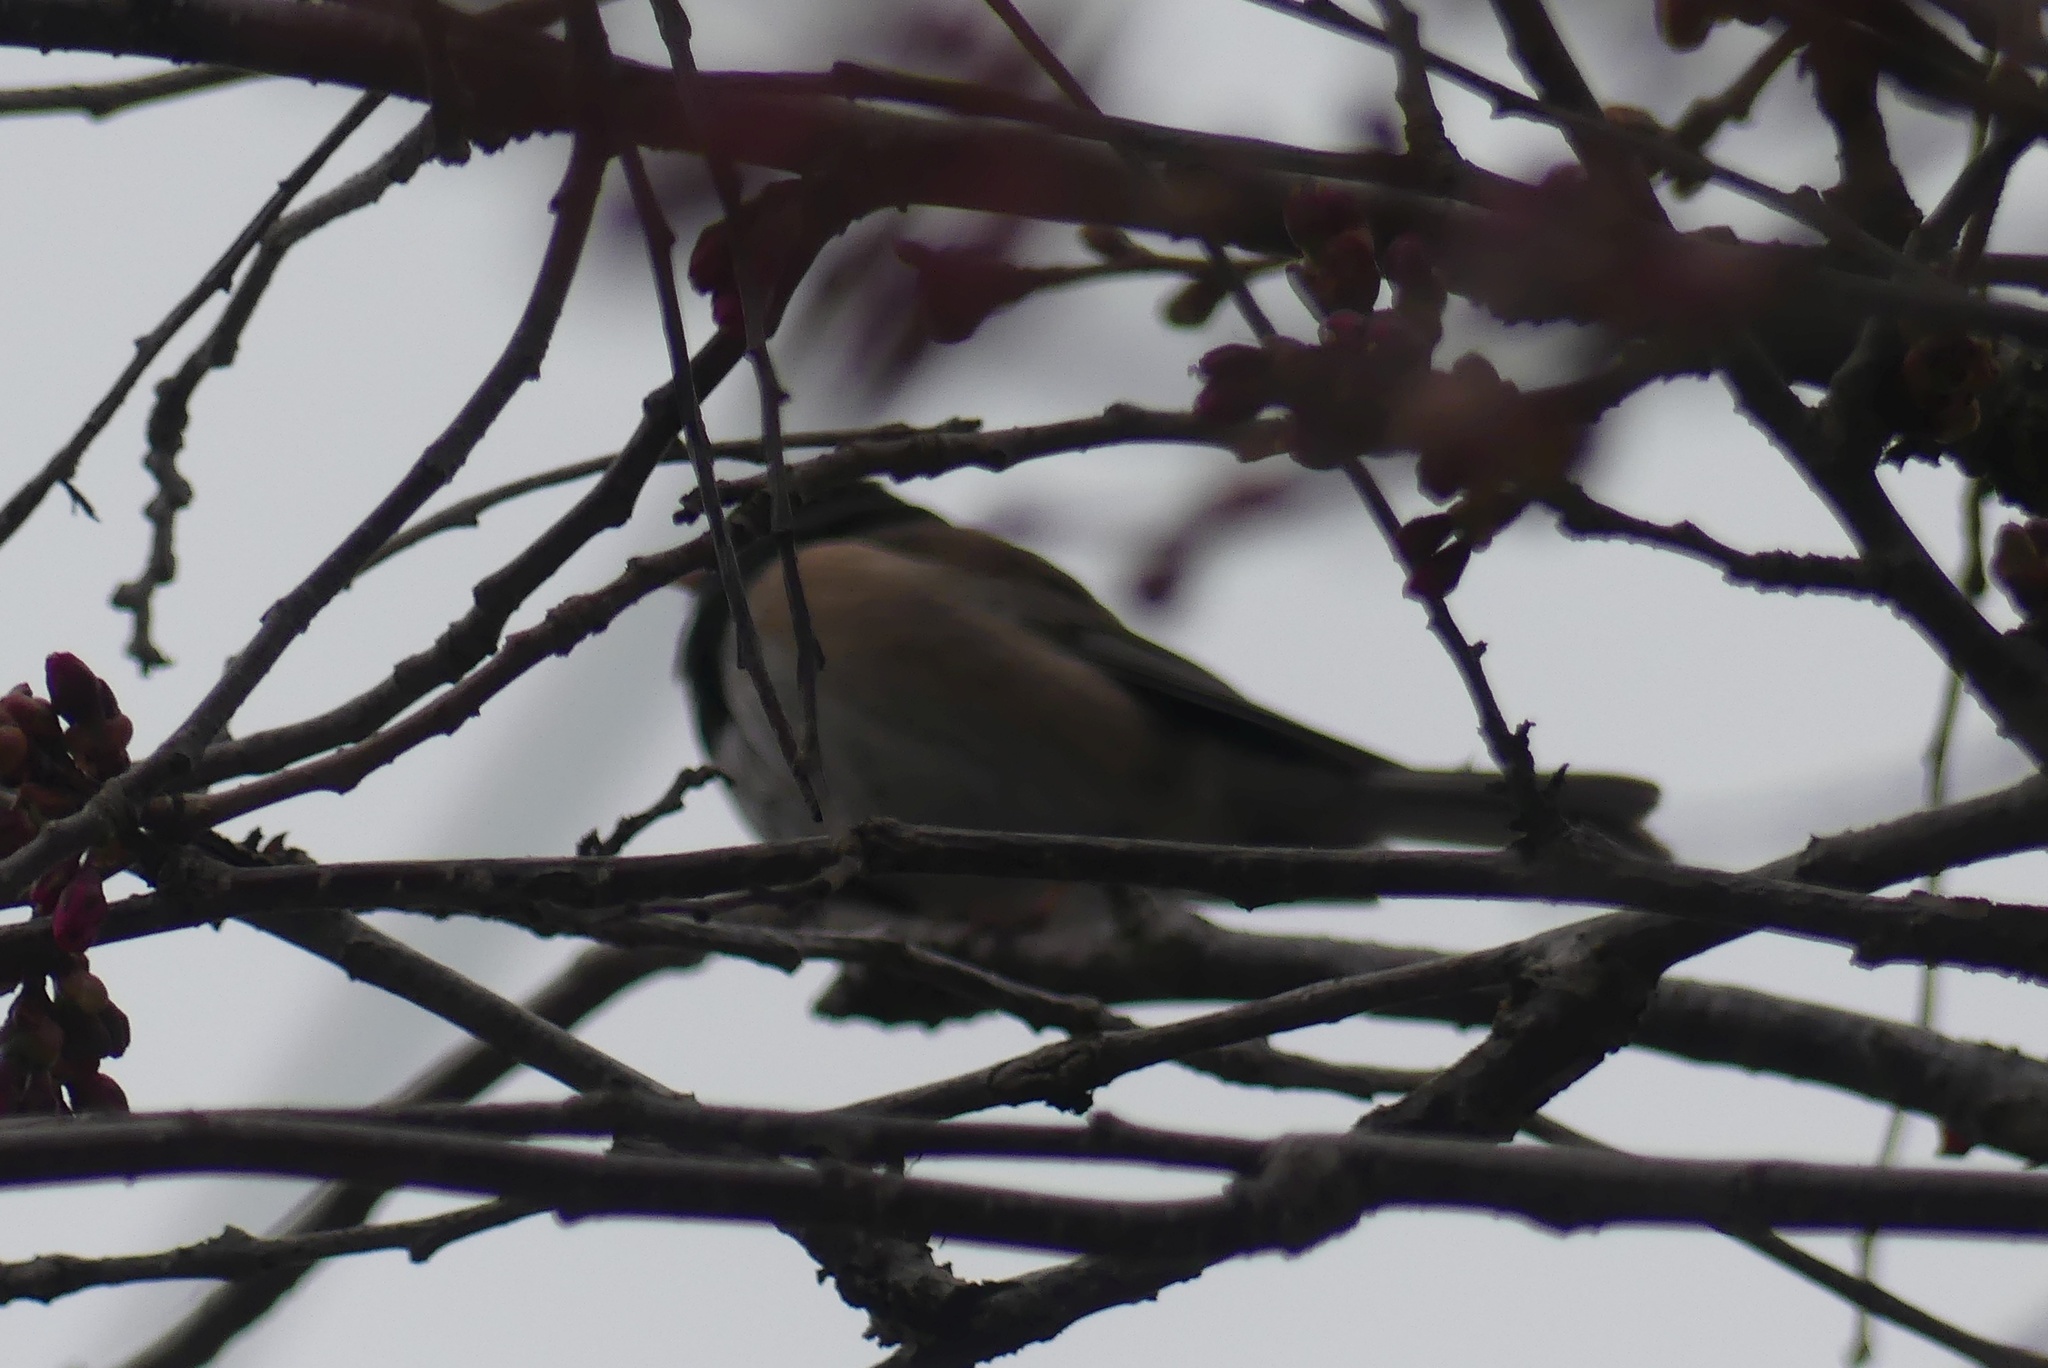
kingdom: Animalia
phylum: Chordata
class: Aves
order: Passeriformes
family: Passerellidae
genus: Junco
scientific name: Junco hyemalis
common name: Dark-eyed junco
